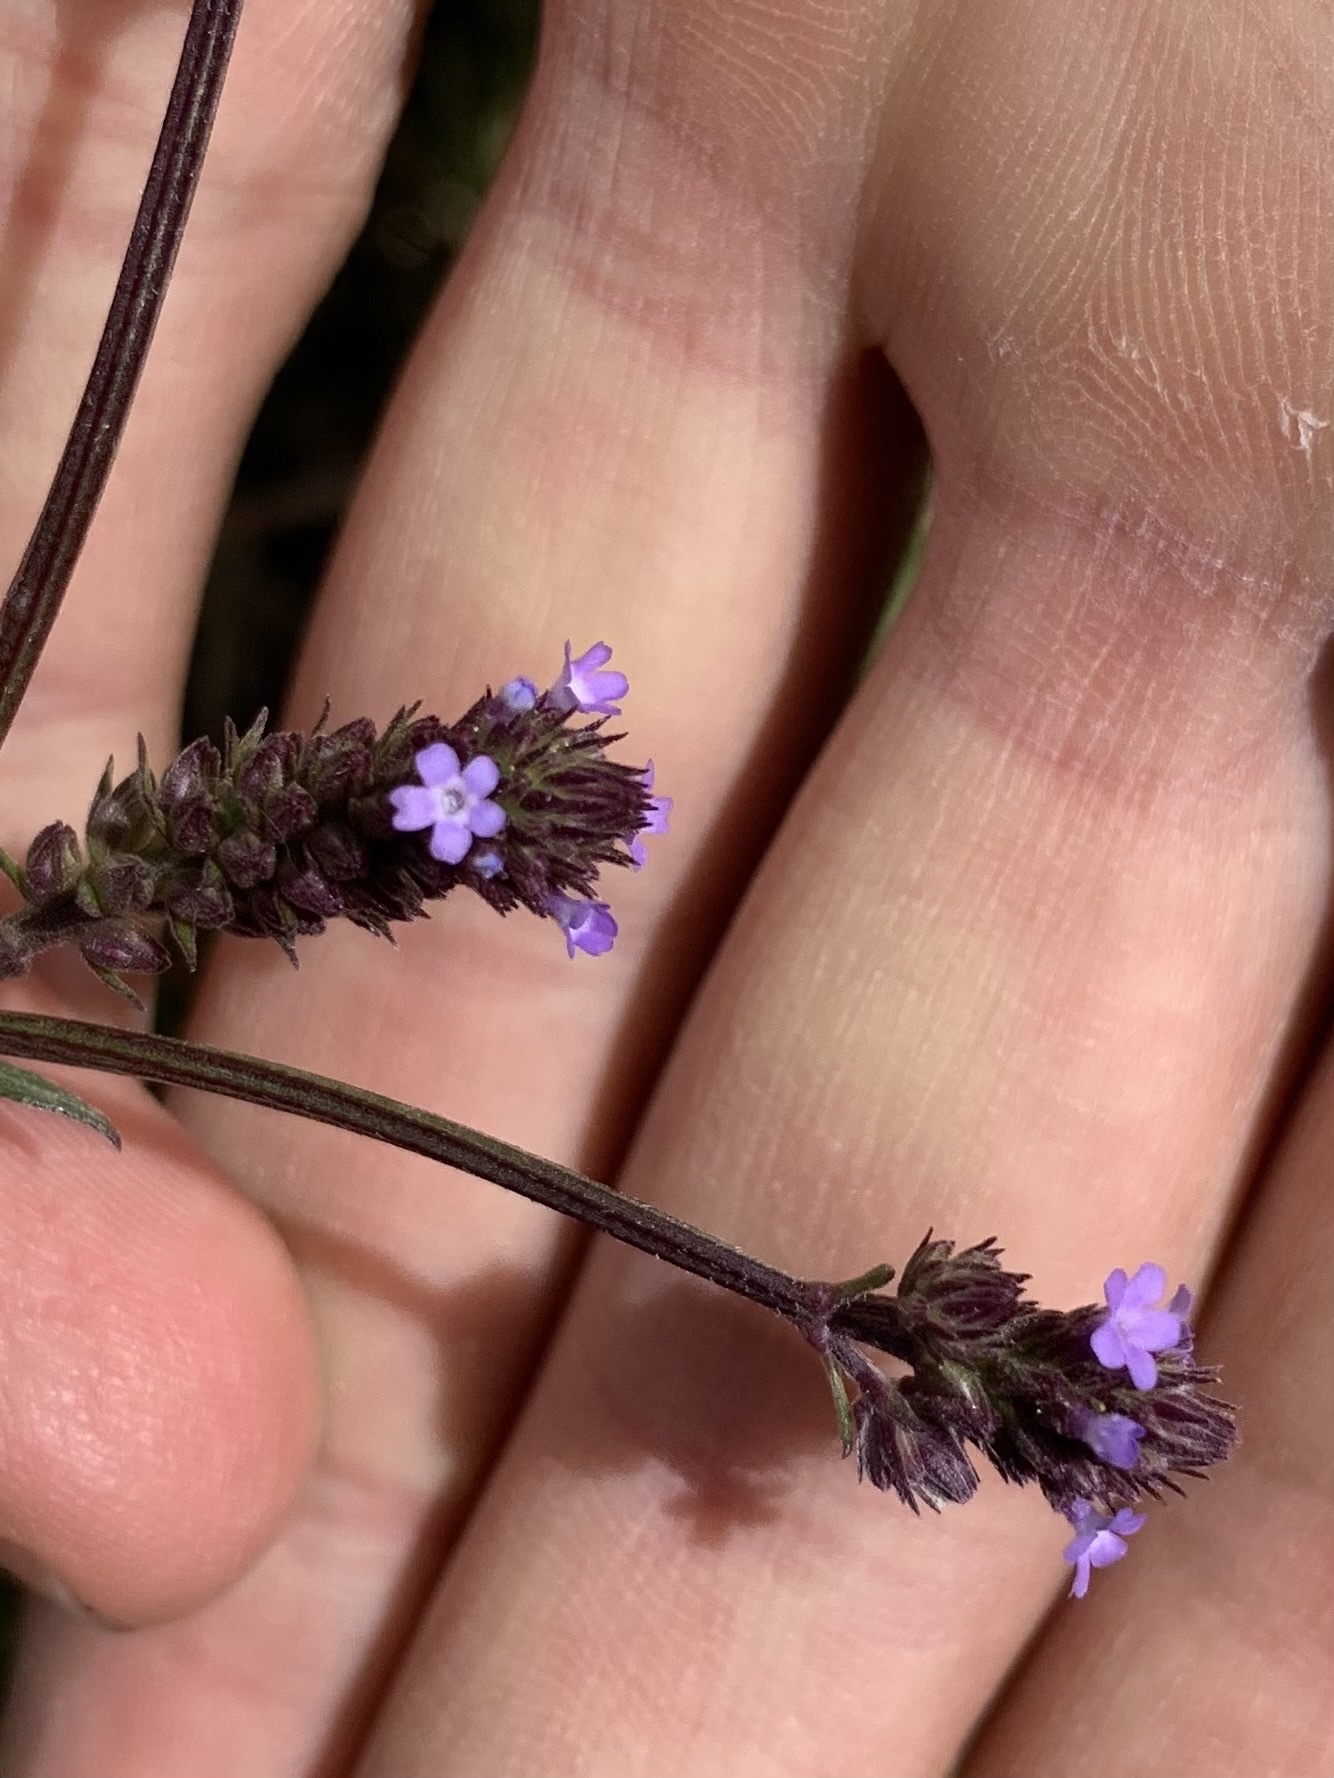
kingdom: Plantae
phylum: Tracheophyta
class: Magnoliopsida
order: Lamiales
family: Verbenaceae
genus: Verbena
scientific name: Verbena hispida
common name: Hairy vervain
